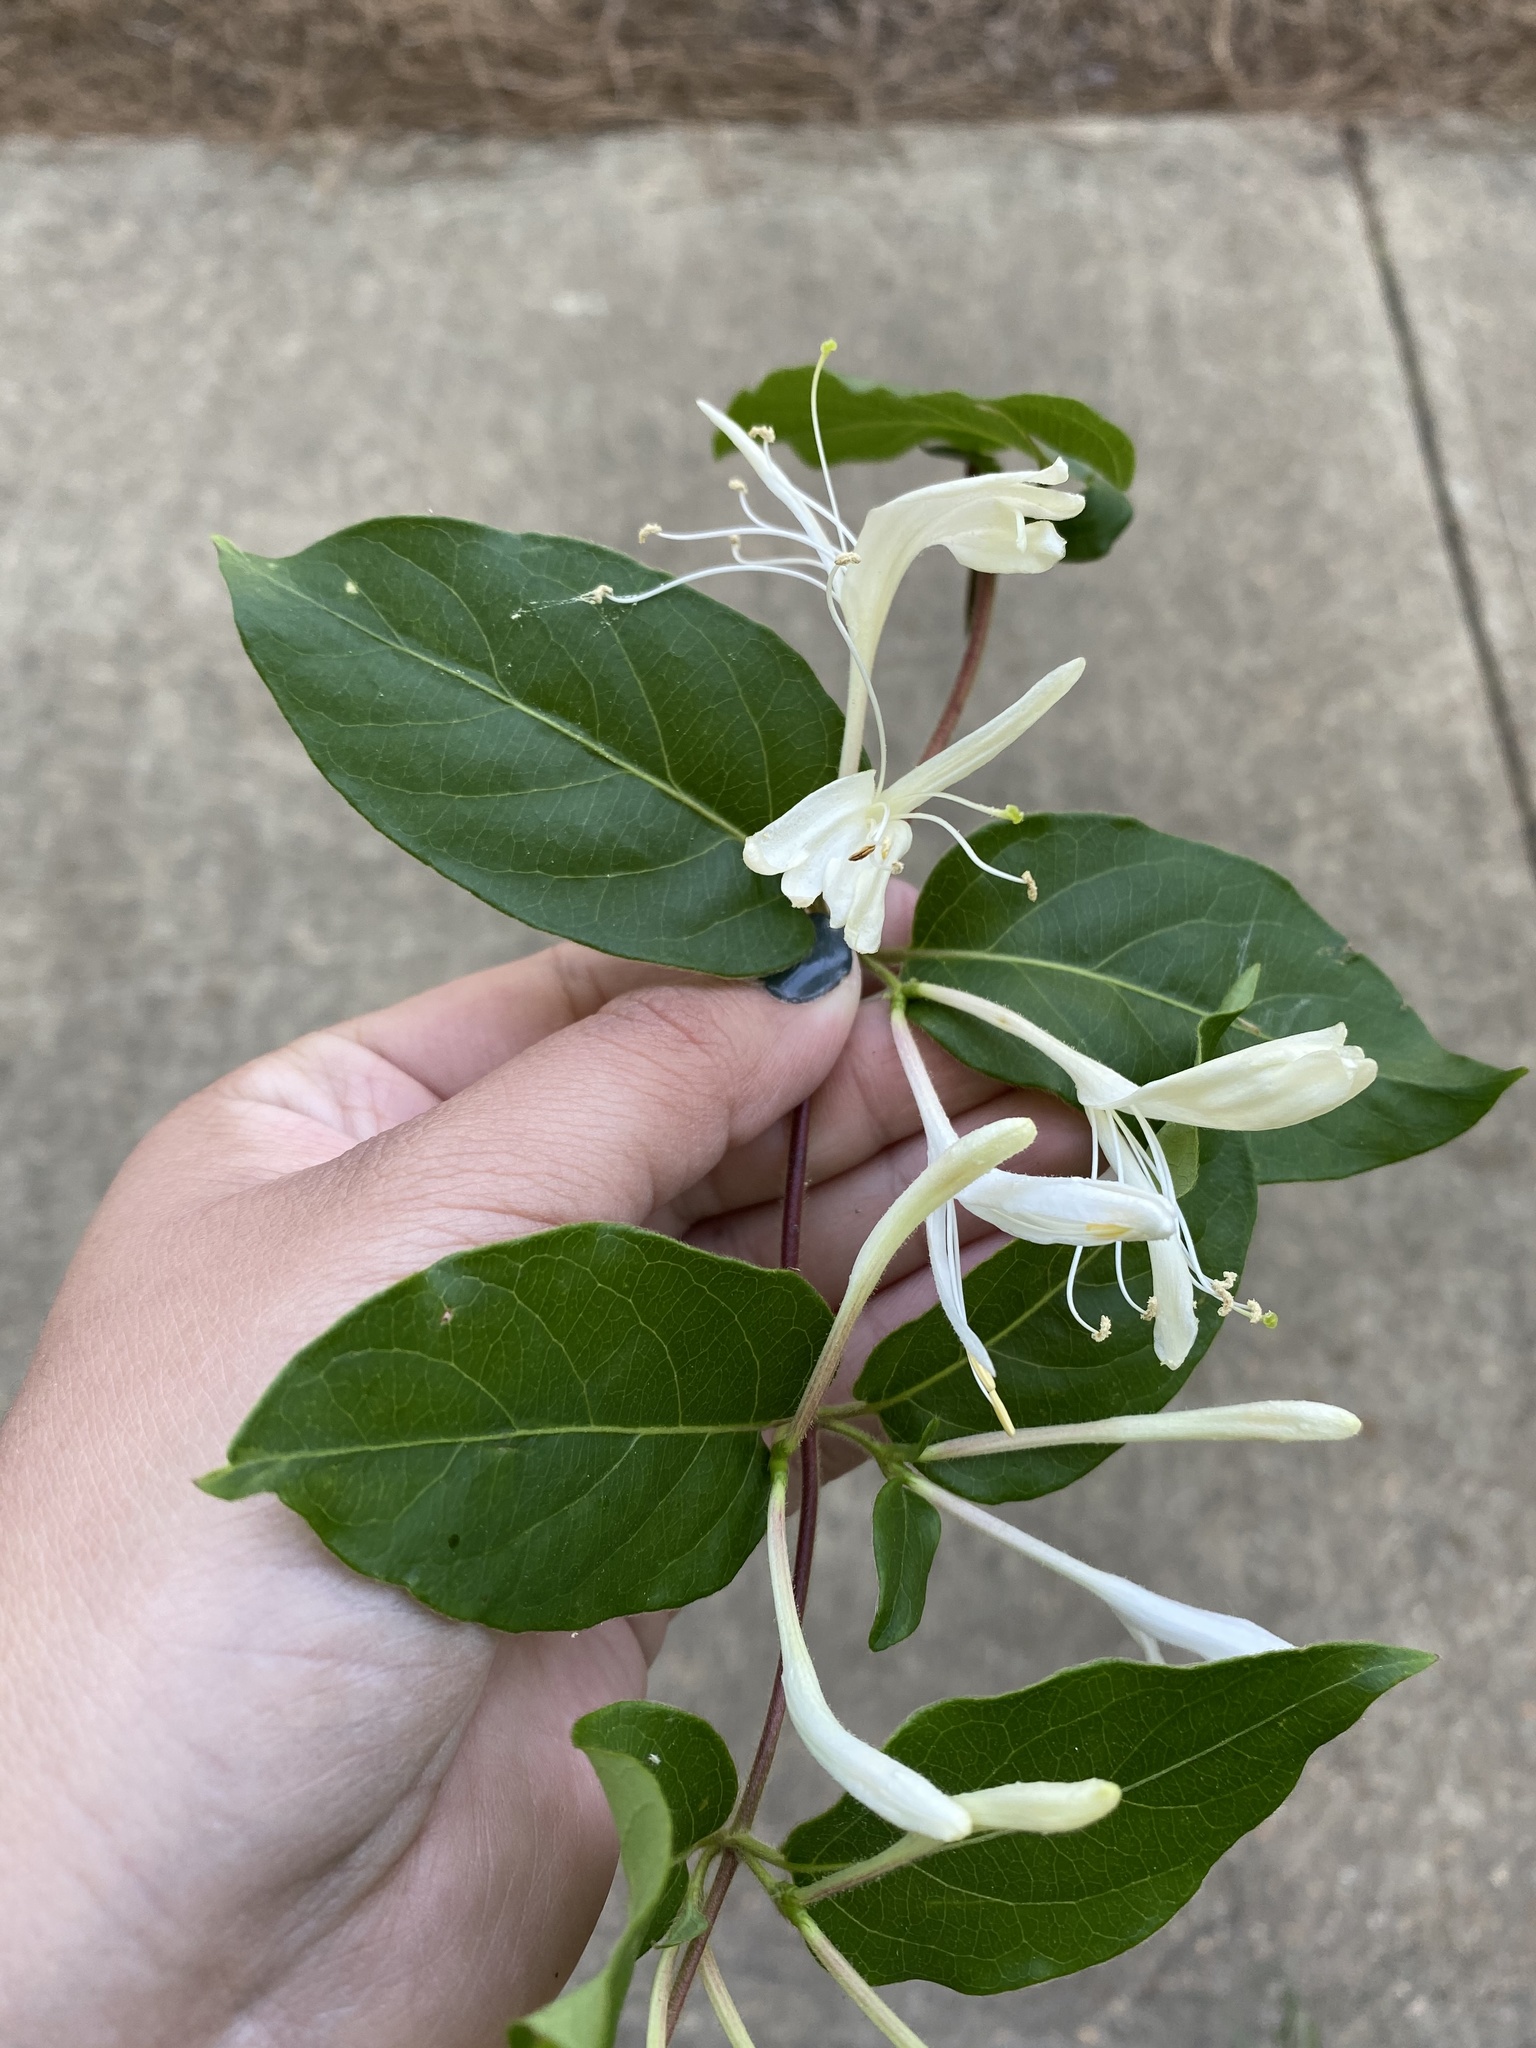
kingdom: Plantae
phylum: Tracheophyta
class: Magnoliopsida
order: Dipsacales
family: Caprifoliaceae
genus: Lonicera
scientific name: Lonicera japonica
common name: Japanese honeysuckle
